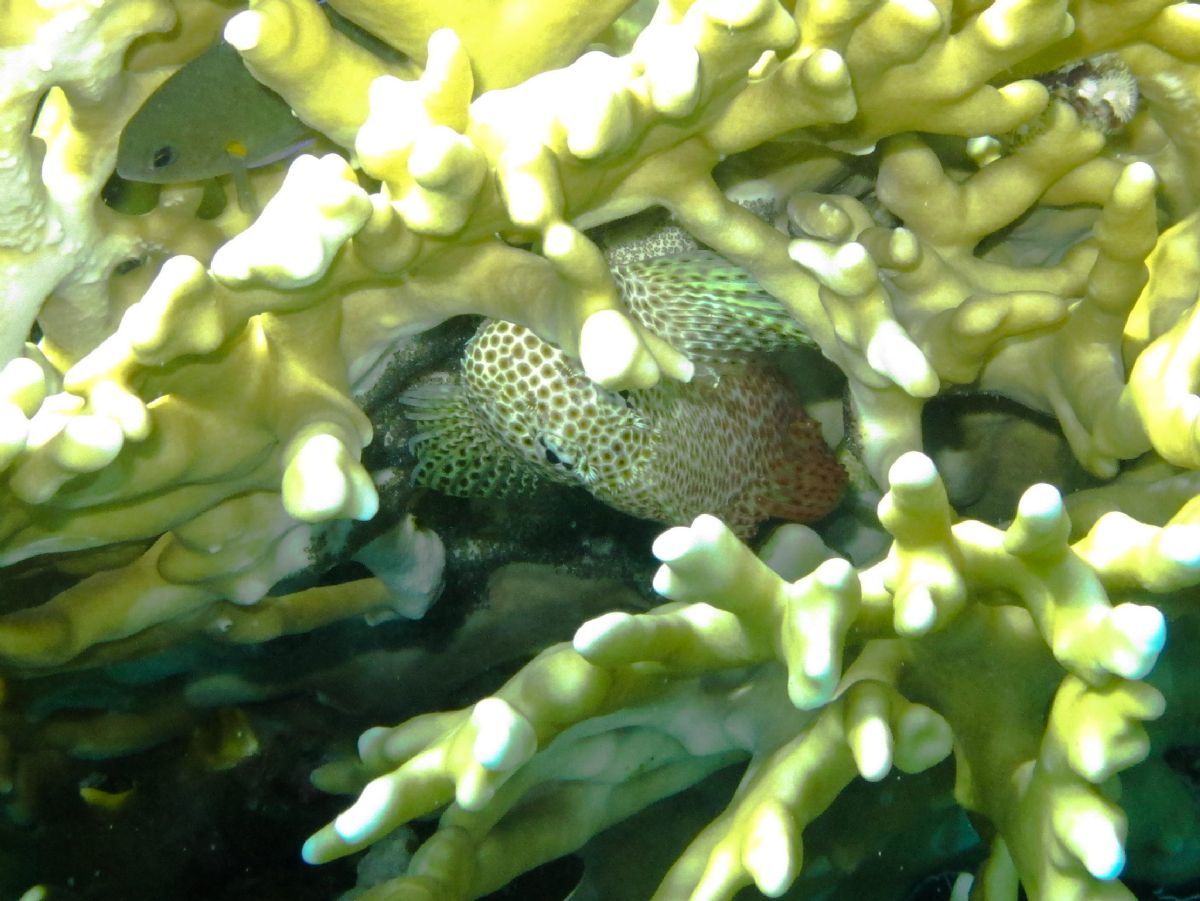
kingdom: Animalia
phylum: Chordata
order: Perciformes
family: Blenniidae
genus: Exallias
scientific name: Exallias brevis
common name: Leopard blenny
